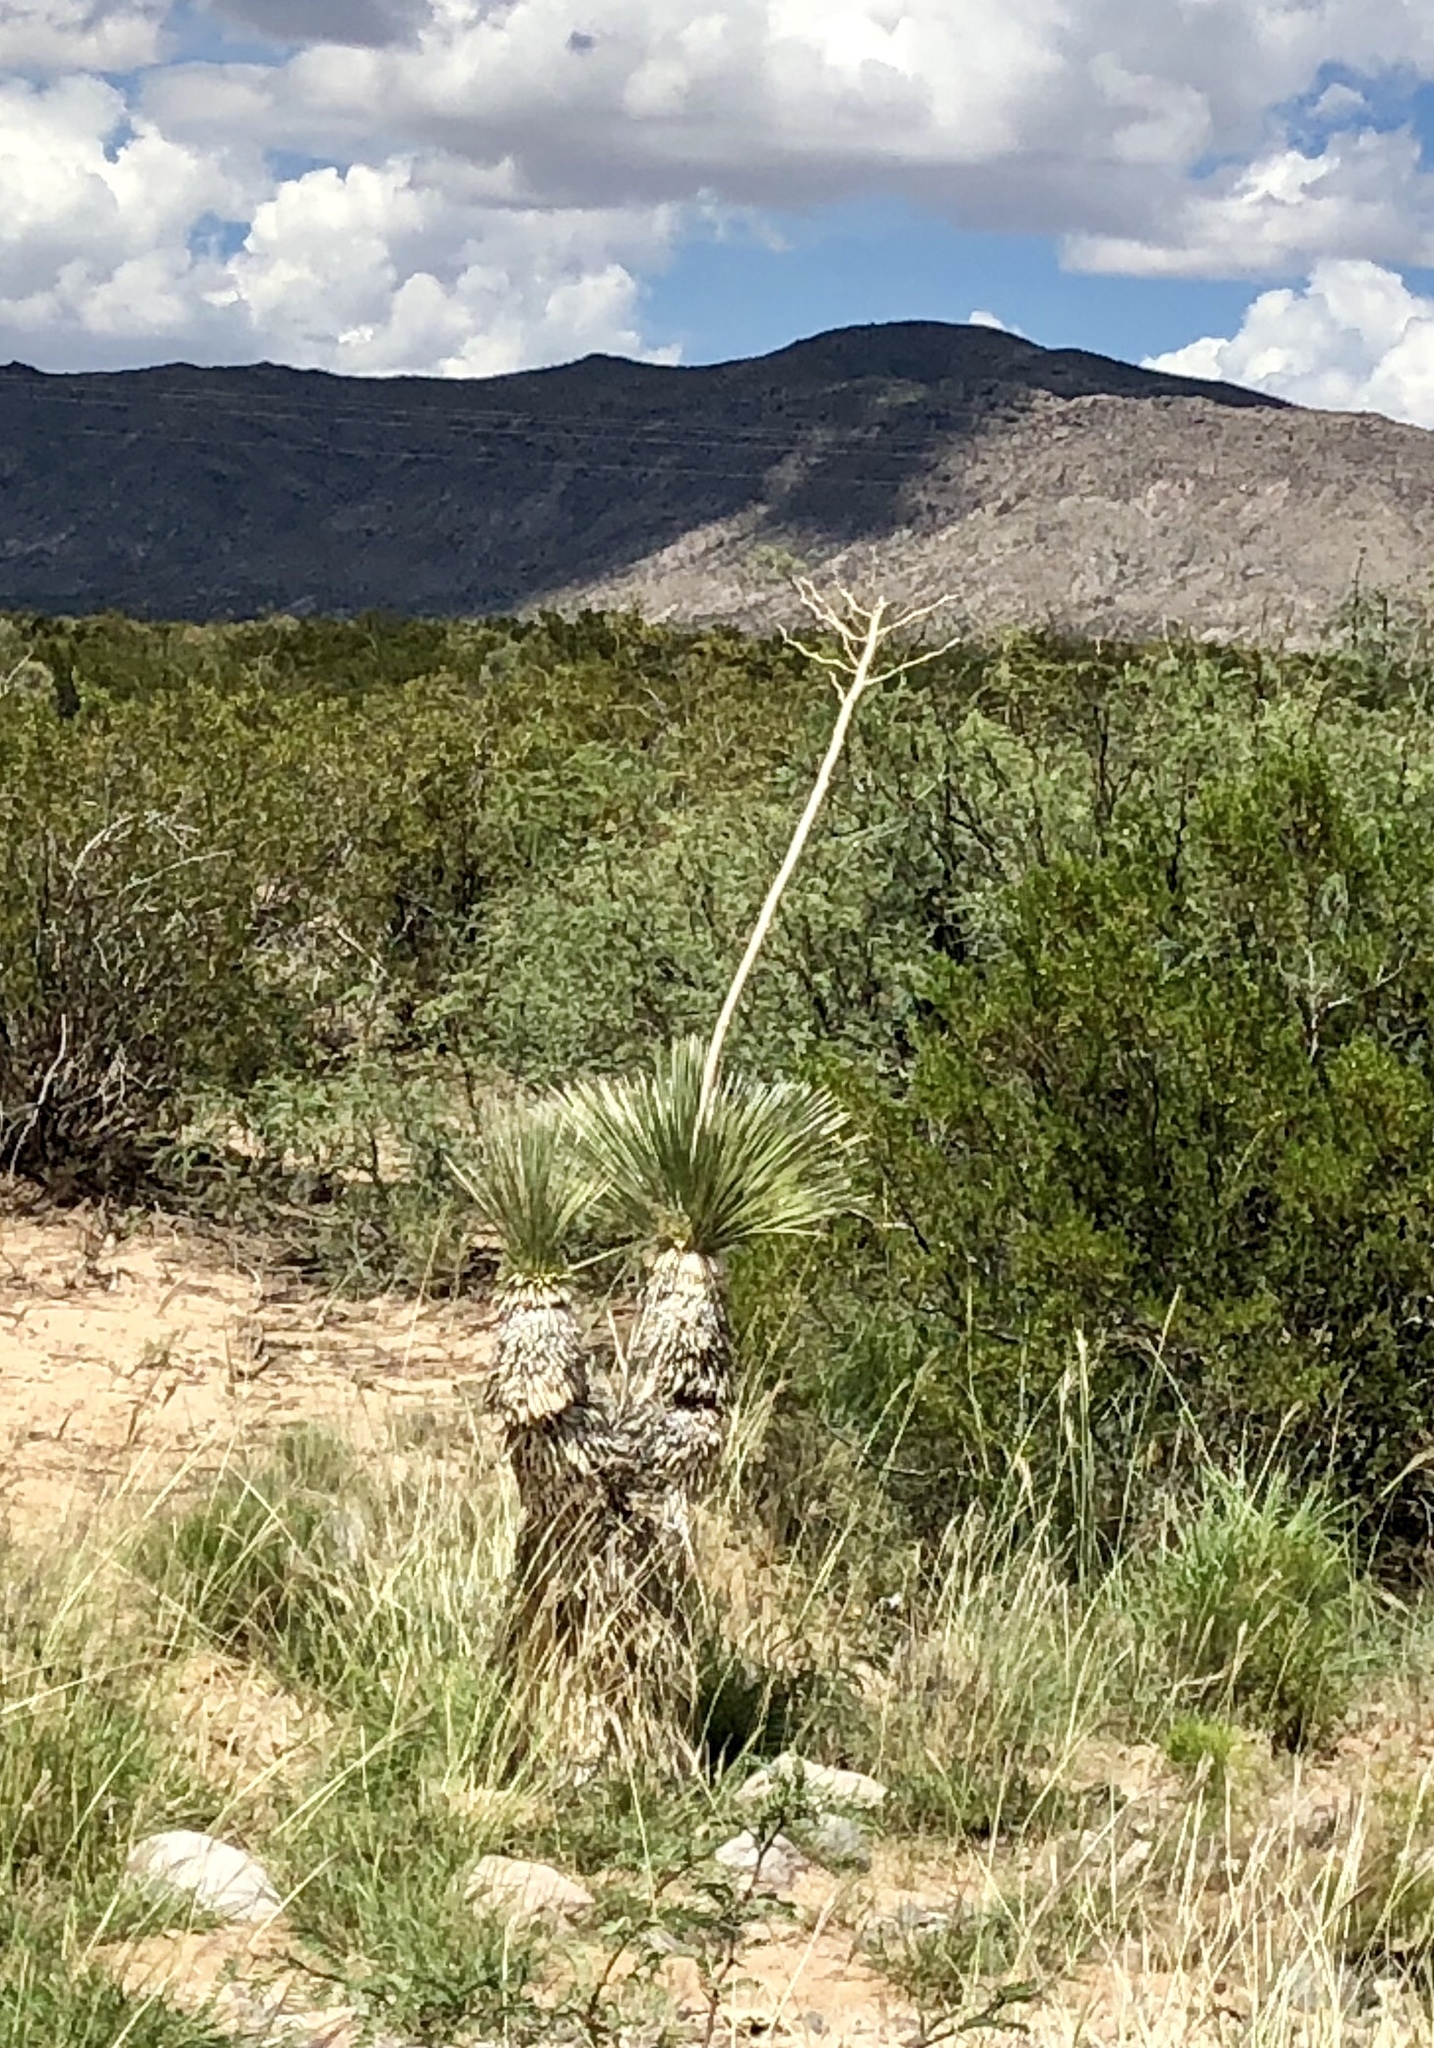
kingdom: Plantae
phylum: Tracheophyta
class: Liliopsida
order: Asparagales
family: Asparagaceae
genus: Yucca
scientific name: Yucca elata
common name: Palmella
